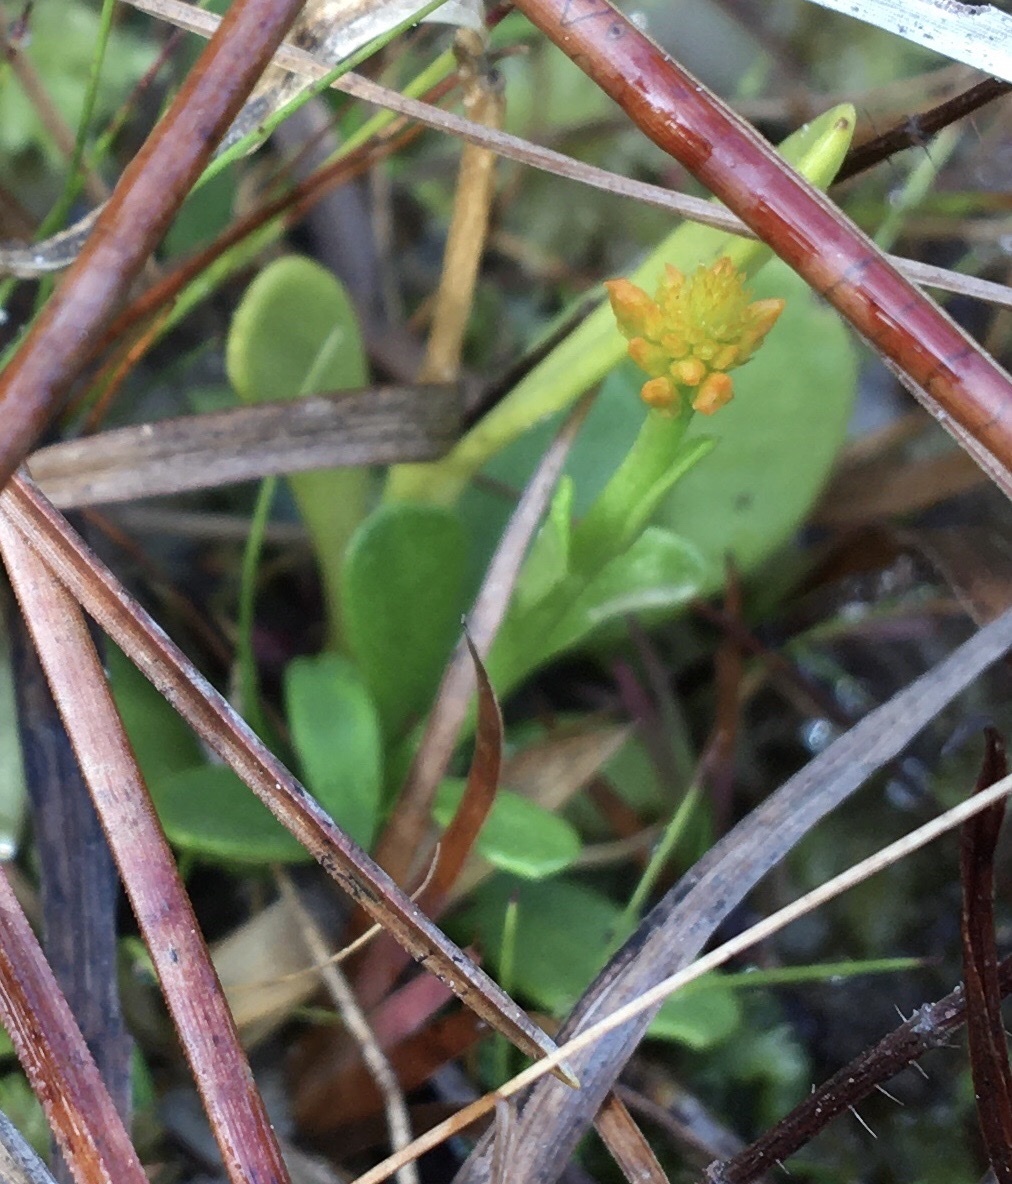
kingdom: Plantae
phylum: Tracheophyta
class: Magnoliopsida
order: Fabales
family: Polygalaceae
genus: Polygala
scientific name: Polygala lutea
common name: Orange milkwort
